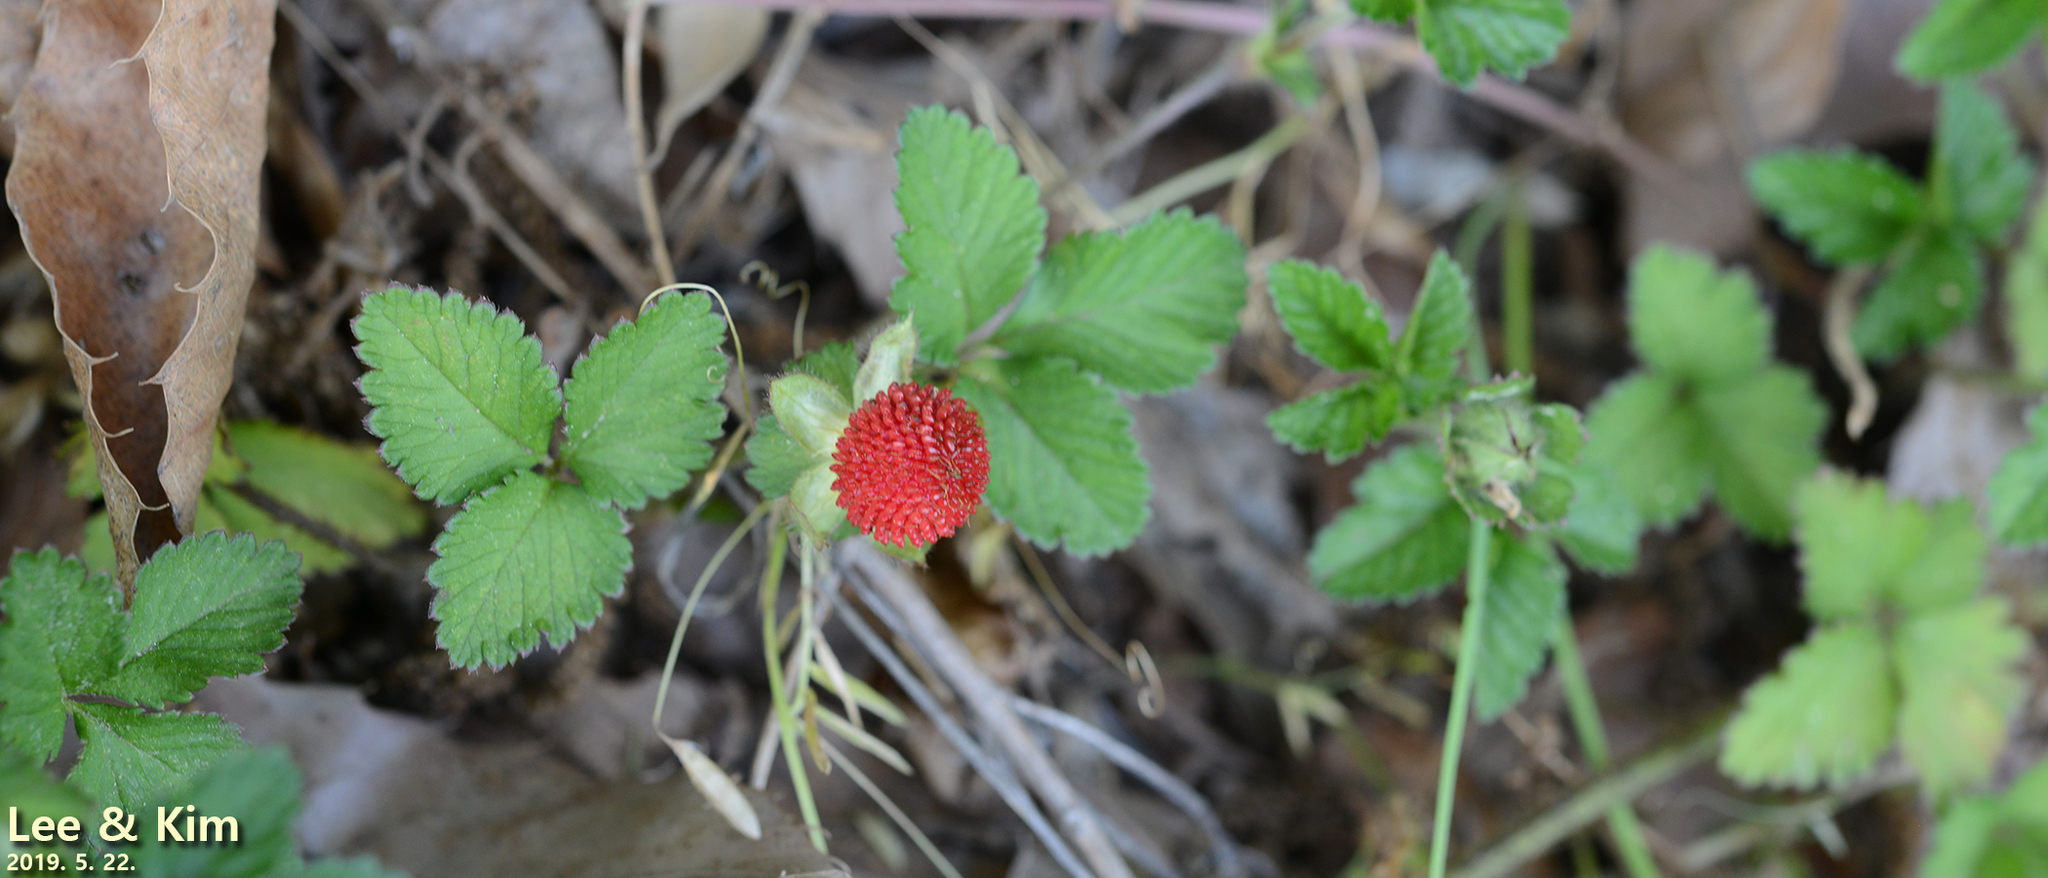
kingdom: Plantae
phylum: Tracheophyta
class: Magnoliopsida
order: Rosales
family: Rosaceae
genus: Potentilla
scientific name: Potentilla indica
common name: Yellow-flowered strawberry
